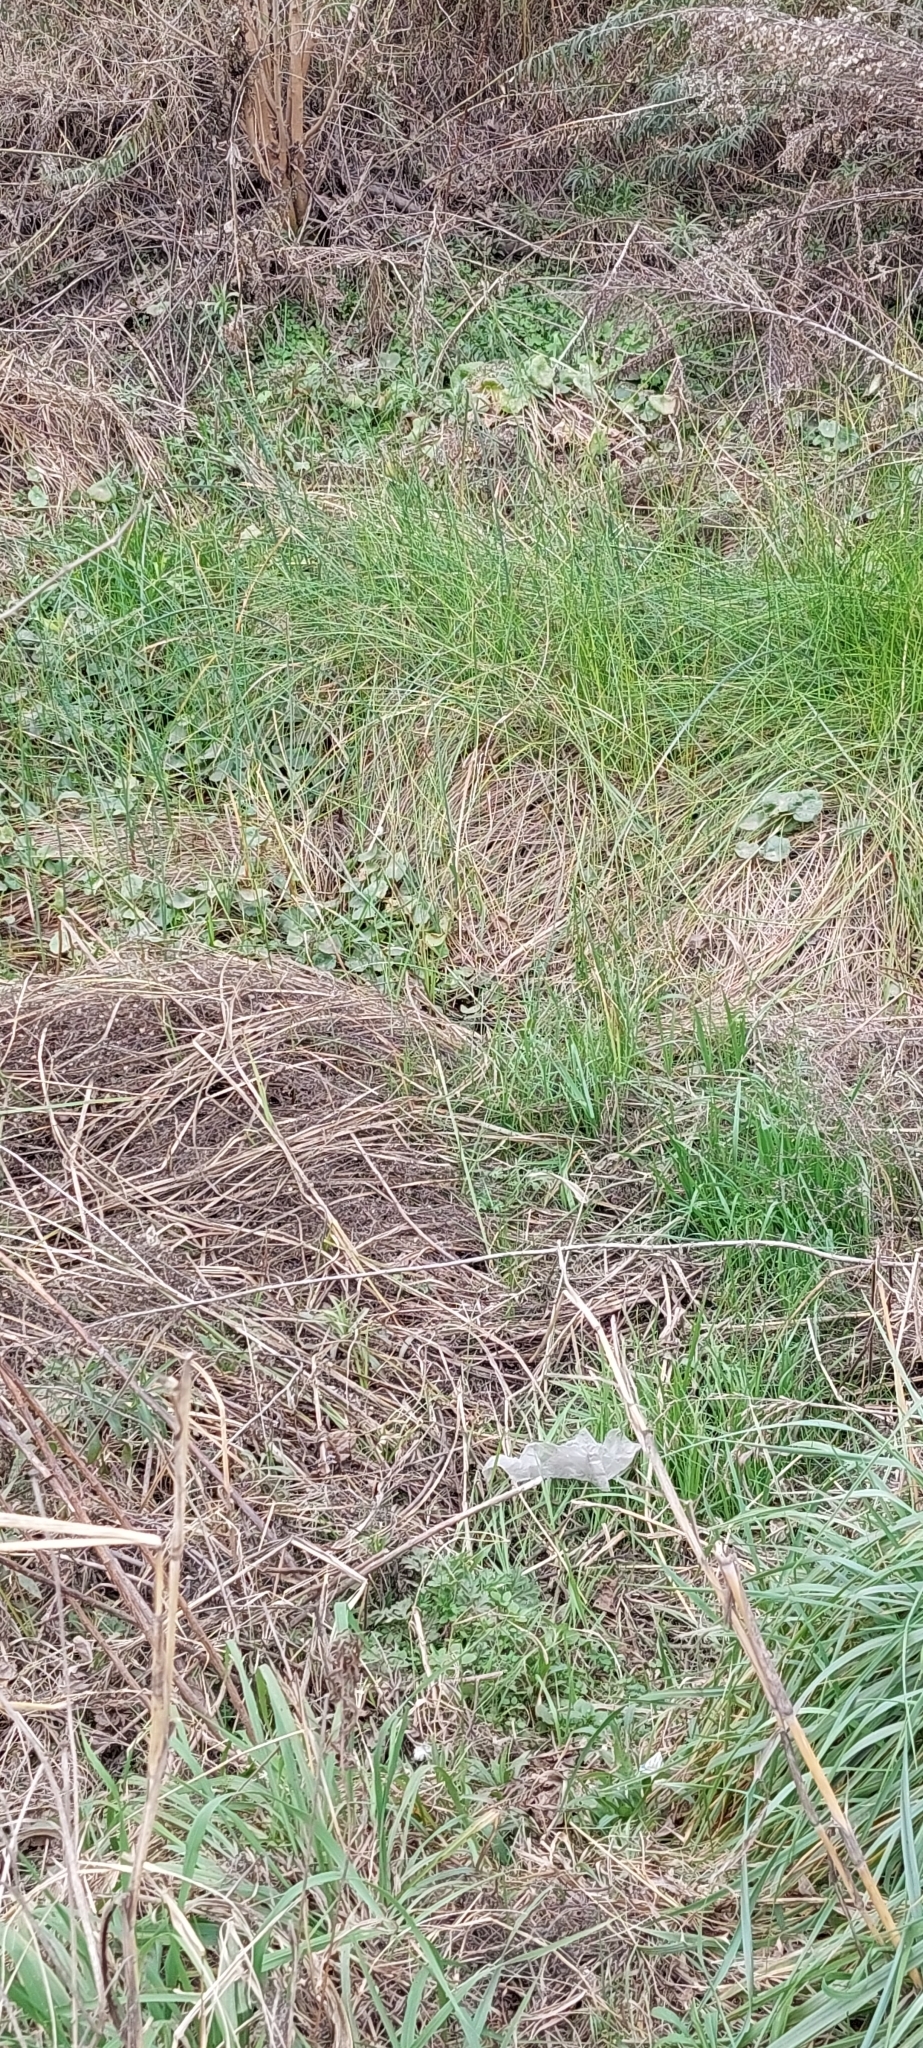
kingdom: Plantae
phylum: Tracheophyta
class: Magnoliopsida
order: Apiales
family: Araliaceae
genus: Hydrocotyle
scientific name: Hydrocotyle bonariensis
